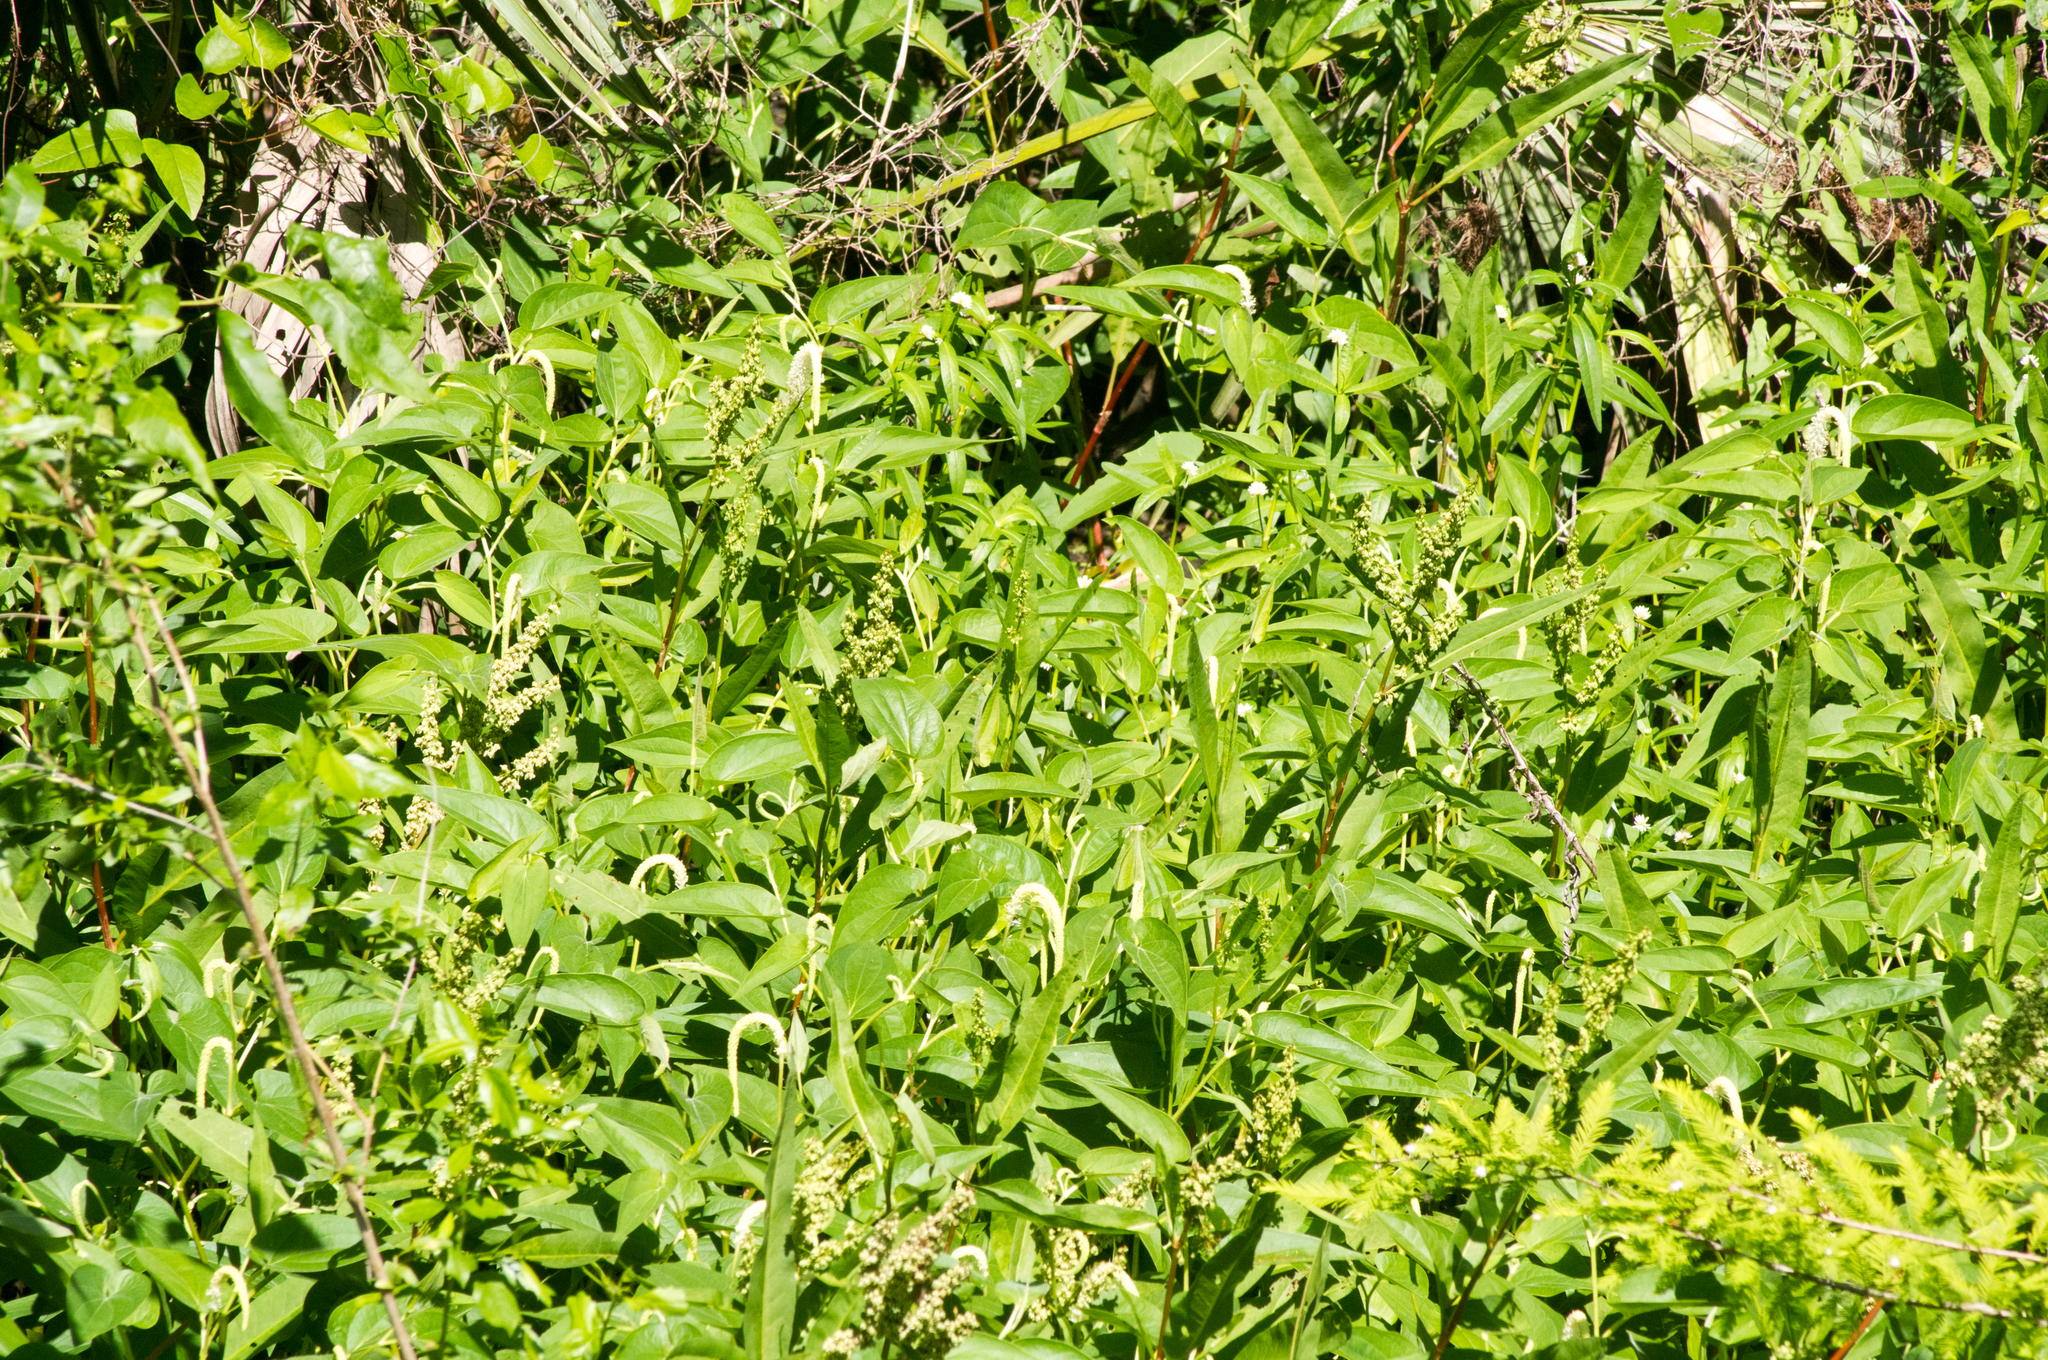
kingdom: Plantae
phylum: Tracheophyta
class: Magnoliopsida
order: Piperales
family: Saururaceae
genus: Saururus
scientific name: Saururus cernuus
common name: Lizard's-tail
